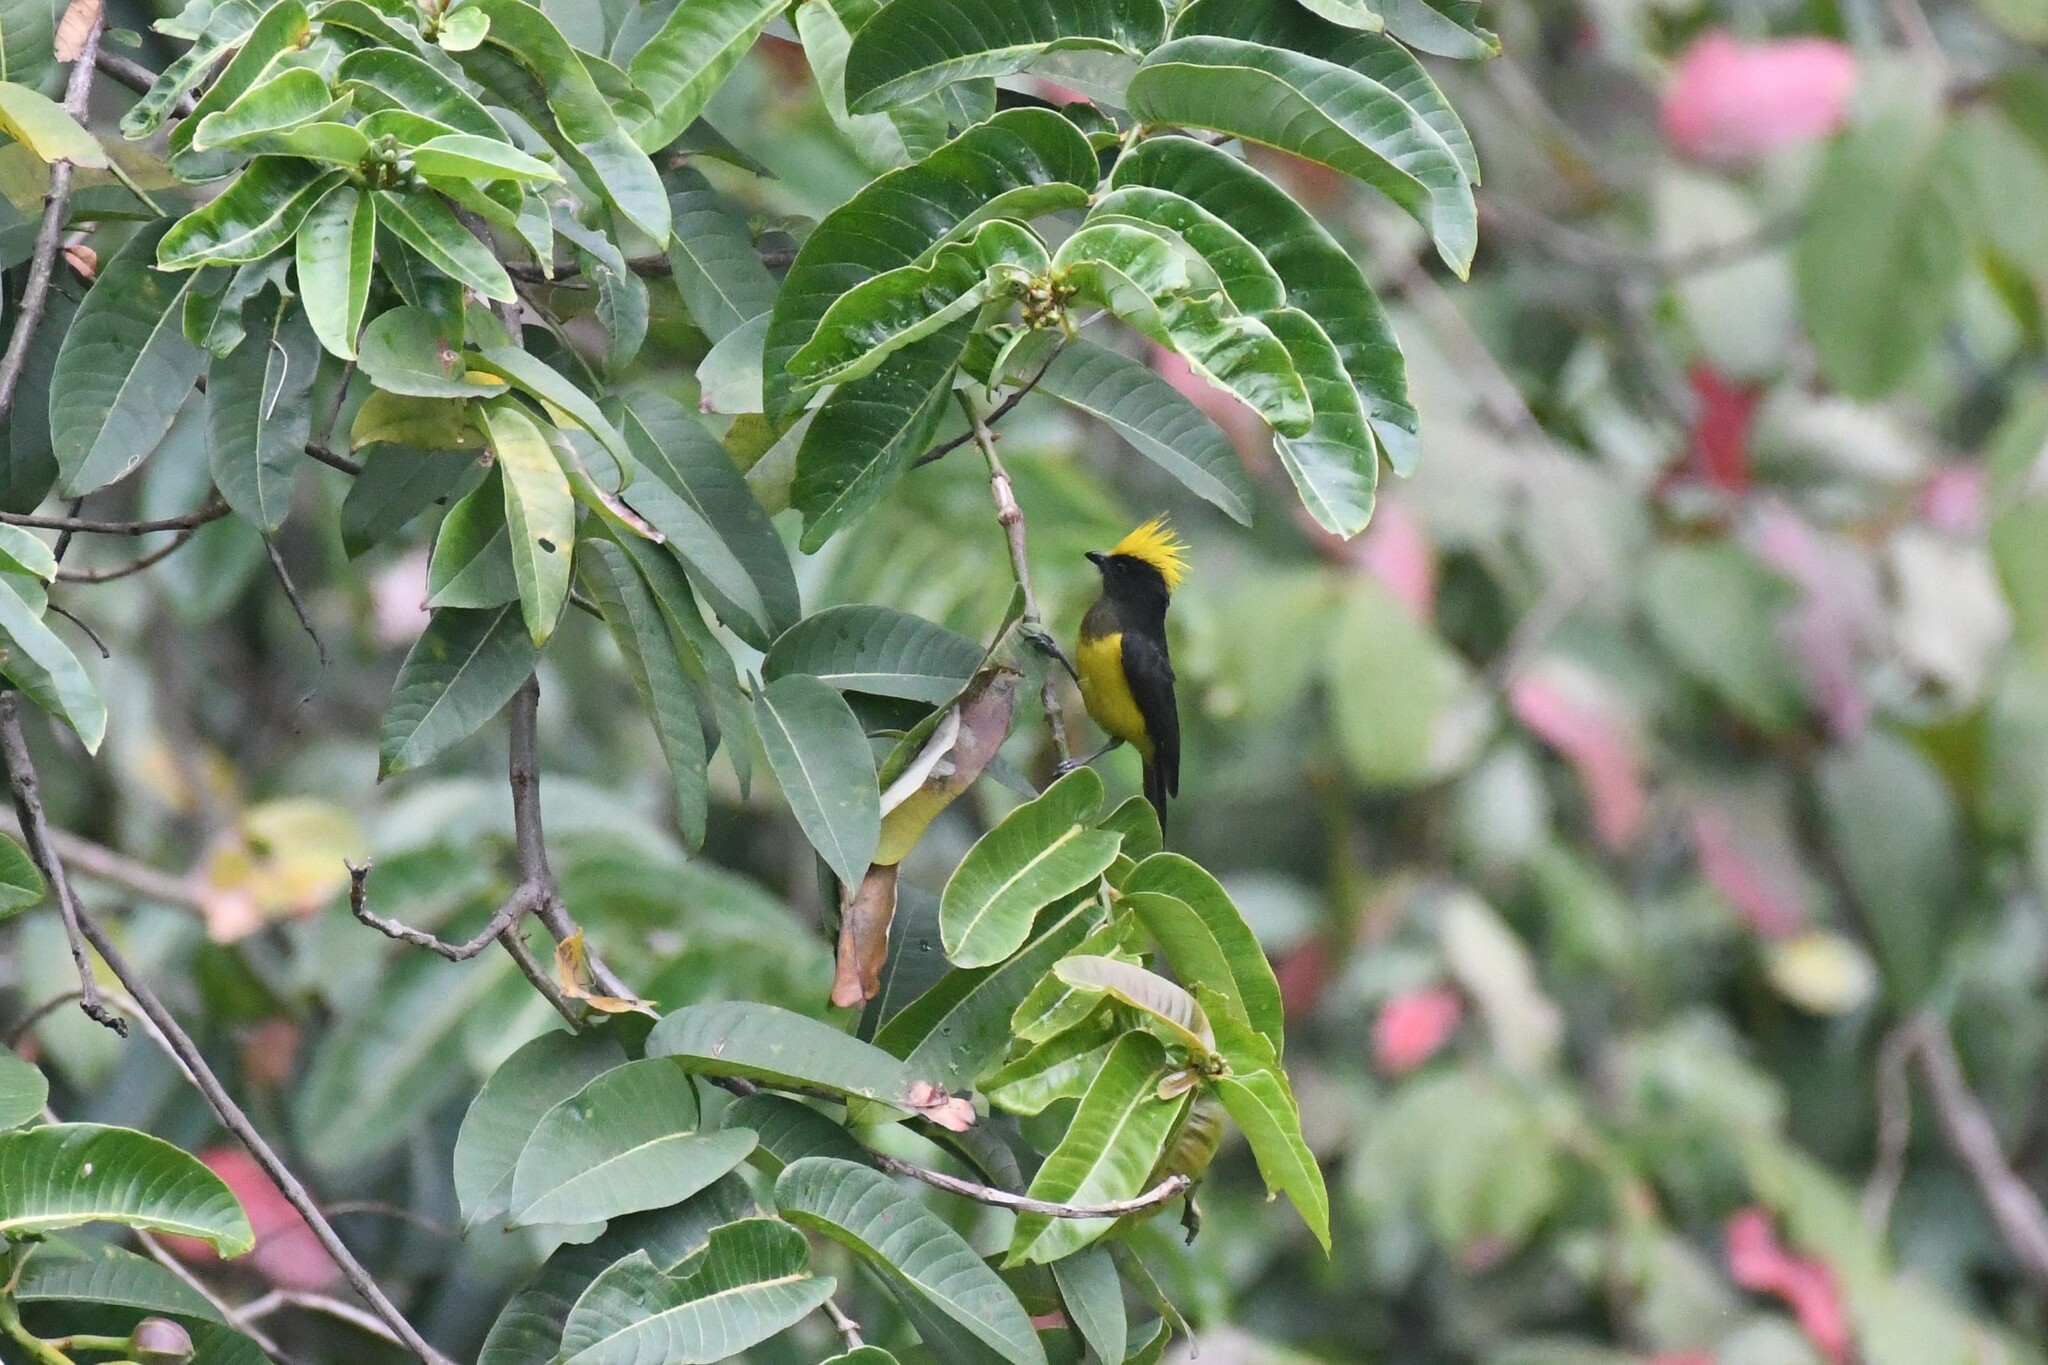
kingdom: Animalia
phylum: Chordata
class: Aves
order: Passeriformes
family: Paridae
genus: Melanochlora
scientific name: Melanochlora sultanea
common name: Sultan tit
